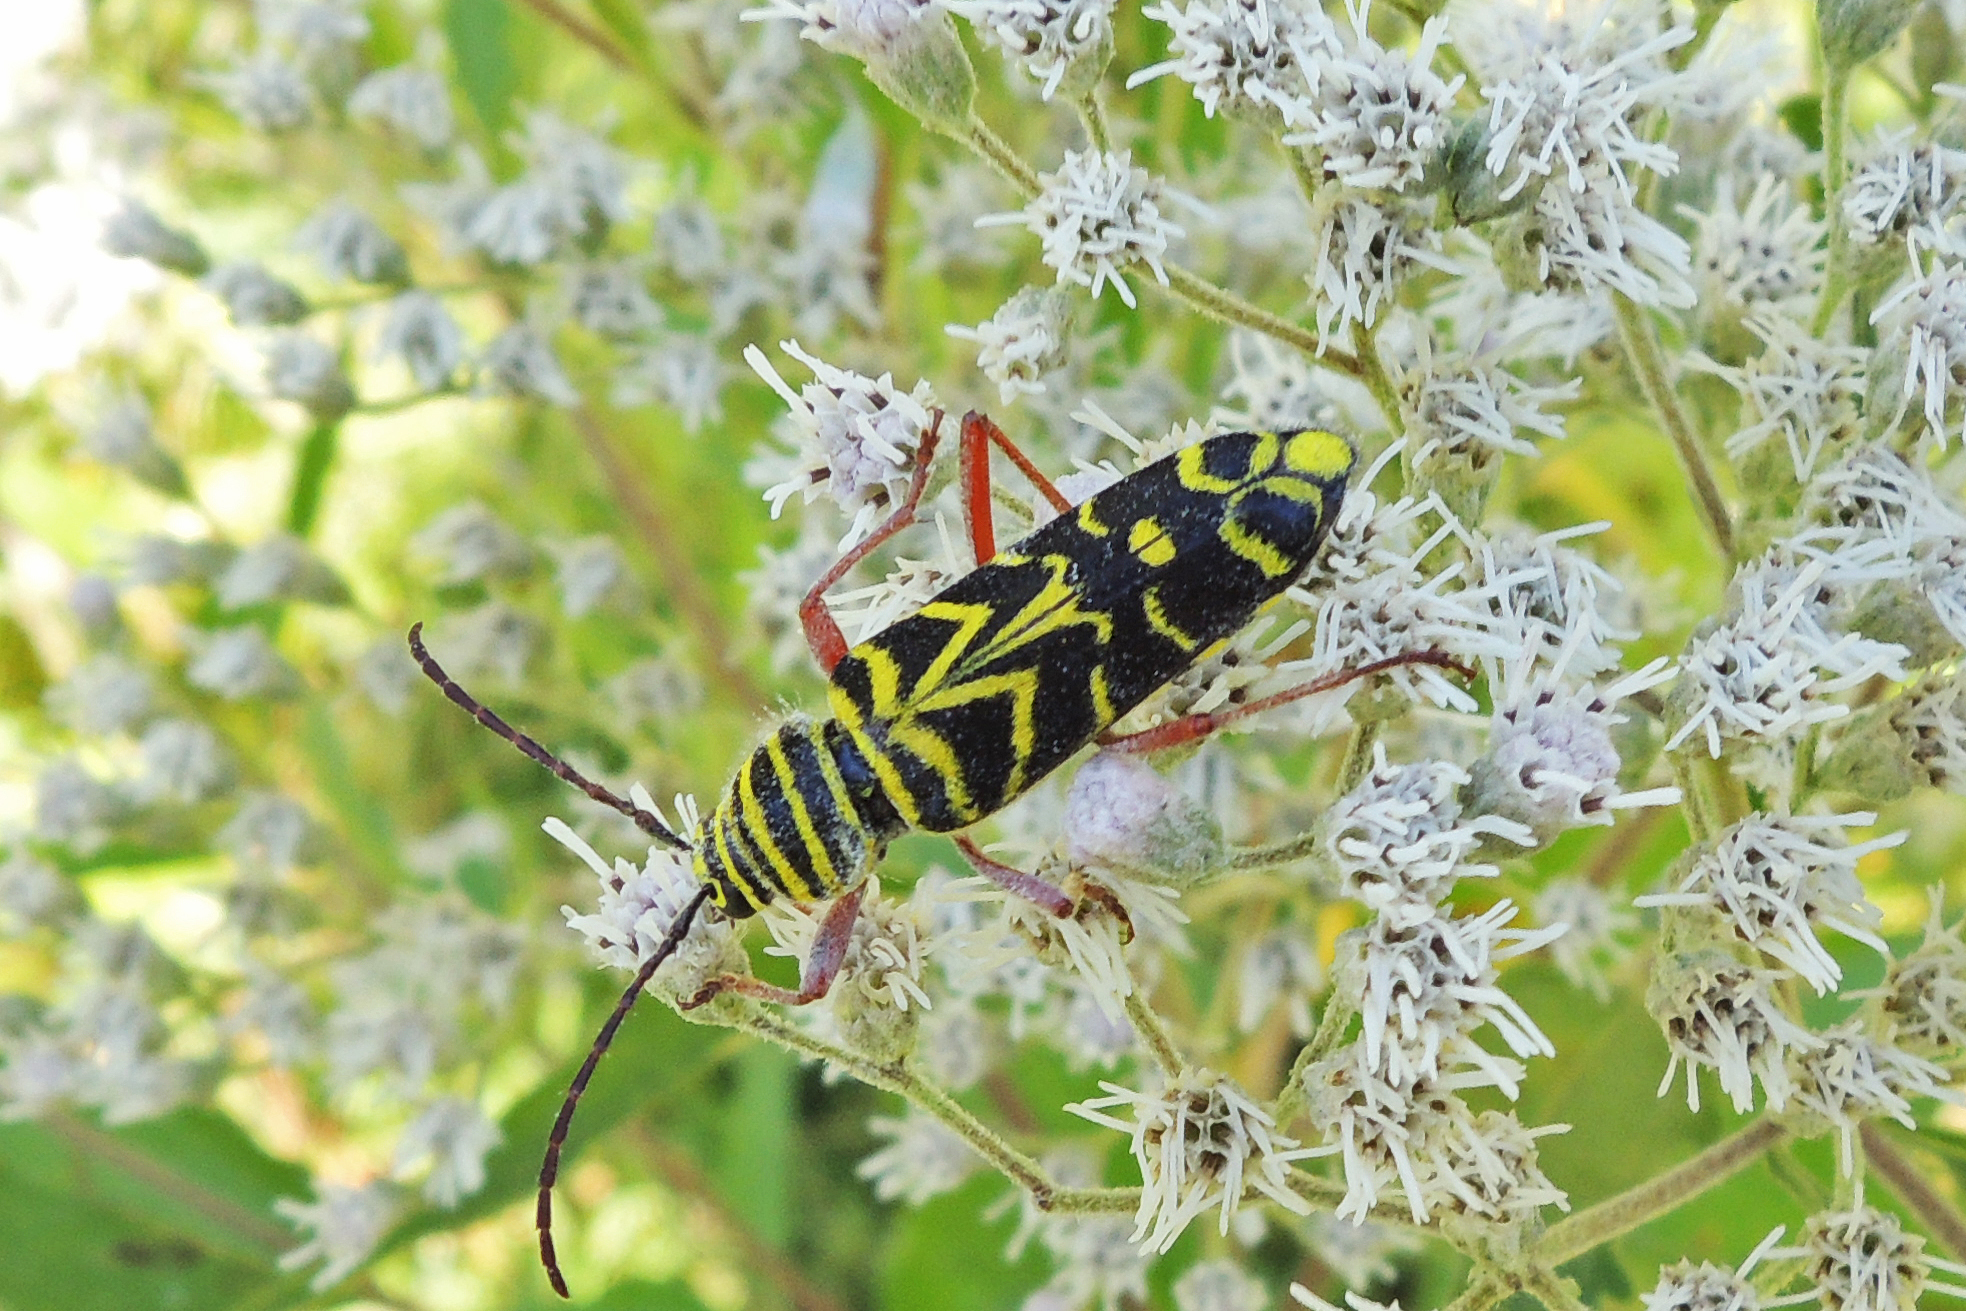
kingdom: Animalia
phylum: Arthropoda
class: Insecta
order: Coleoptera
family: Cerambycidae
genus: Megacyllene
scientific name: Megacyllene robiniae
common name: Locust borer
